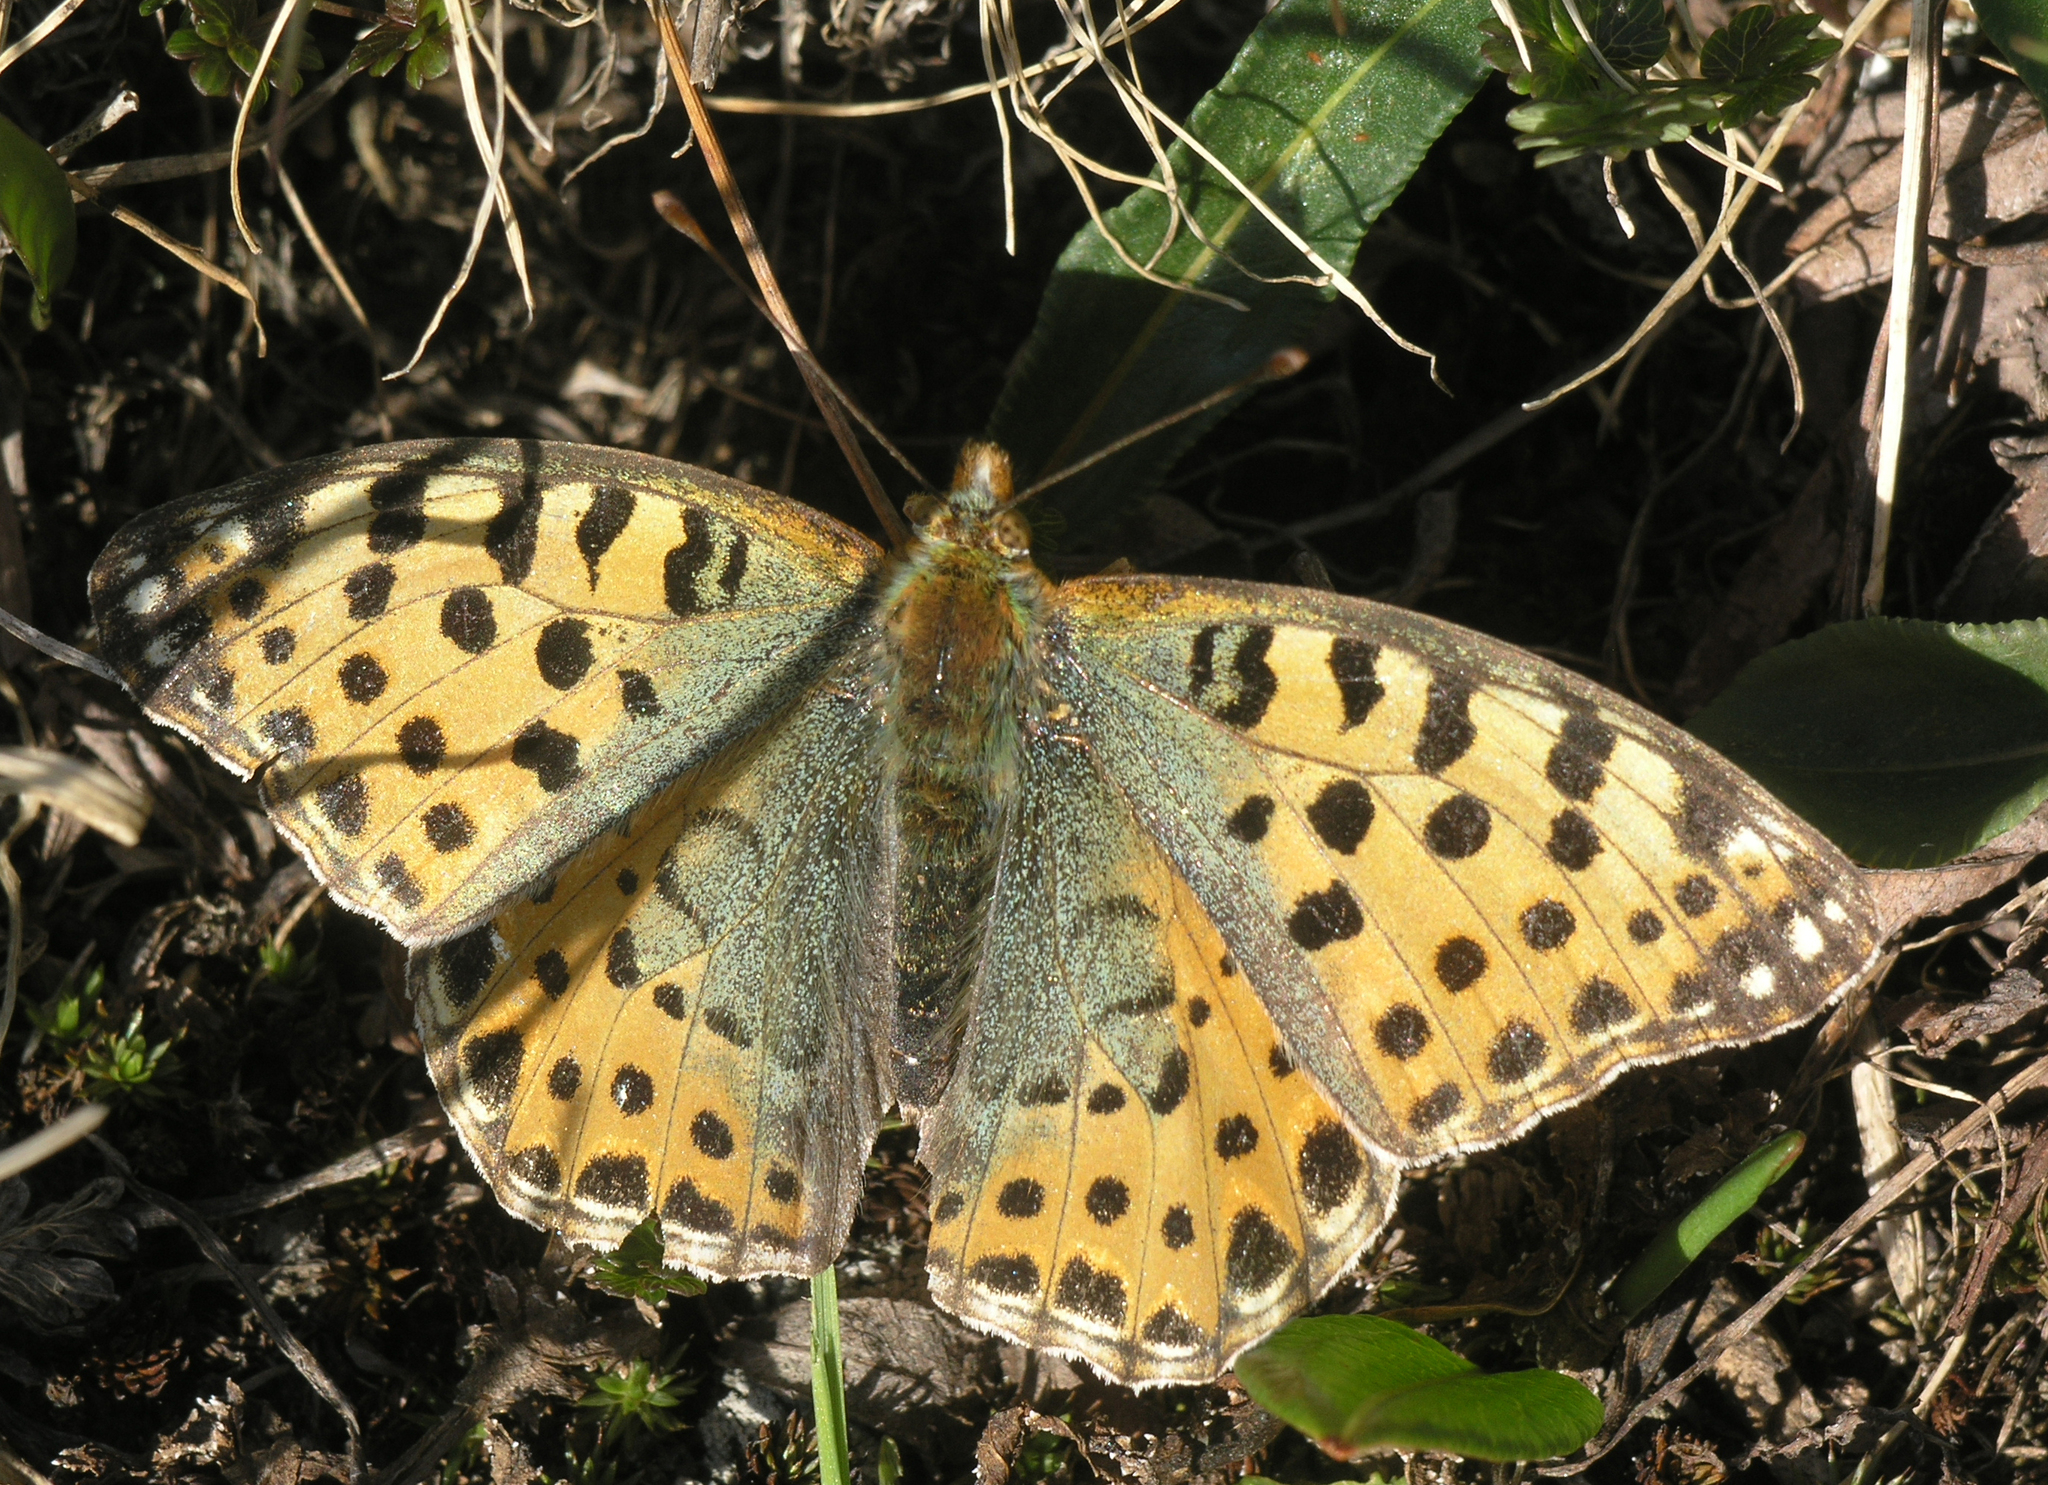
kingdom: Animalia
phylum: Arthropoda
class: Insecta
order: Lepidoptera
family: Nymphalidae
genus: Issoria
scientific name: Issoria lathonia
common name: Queen of spain fritillary
